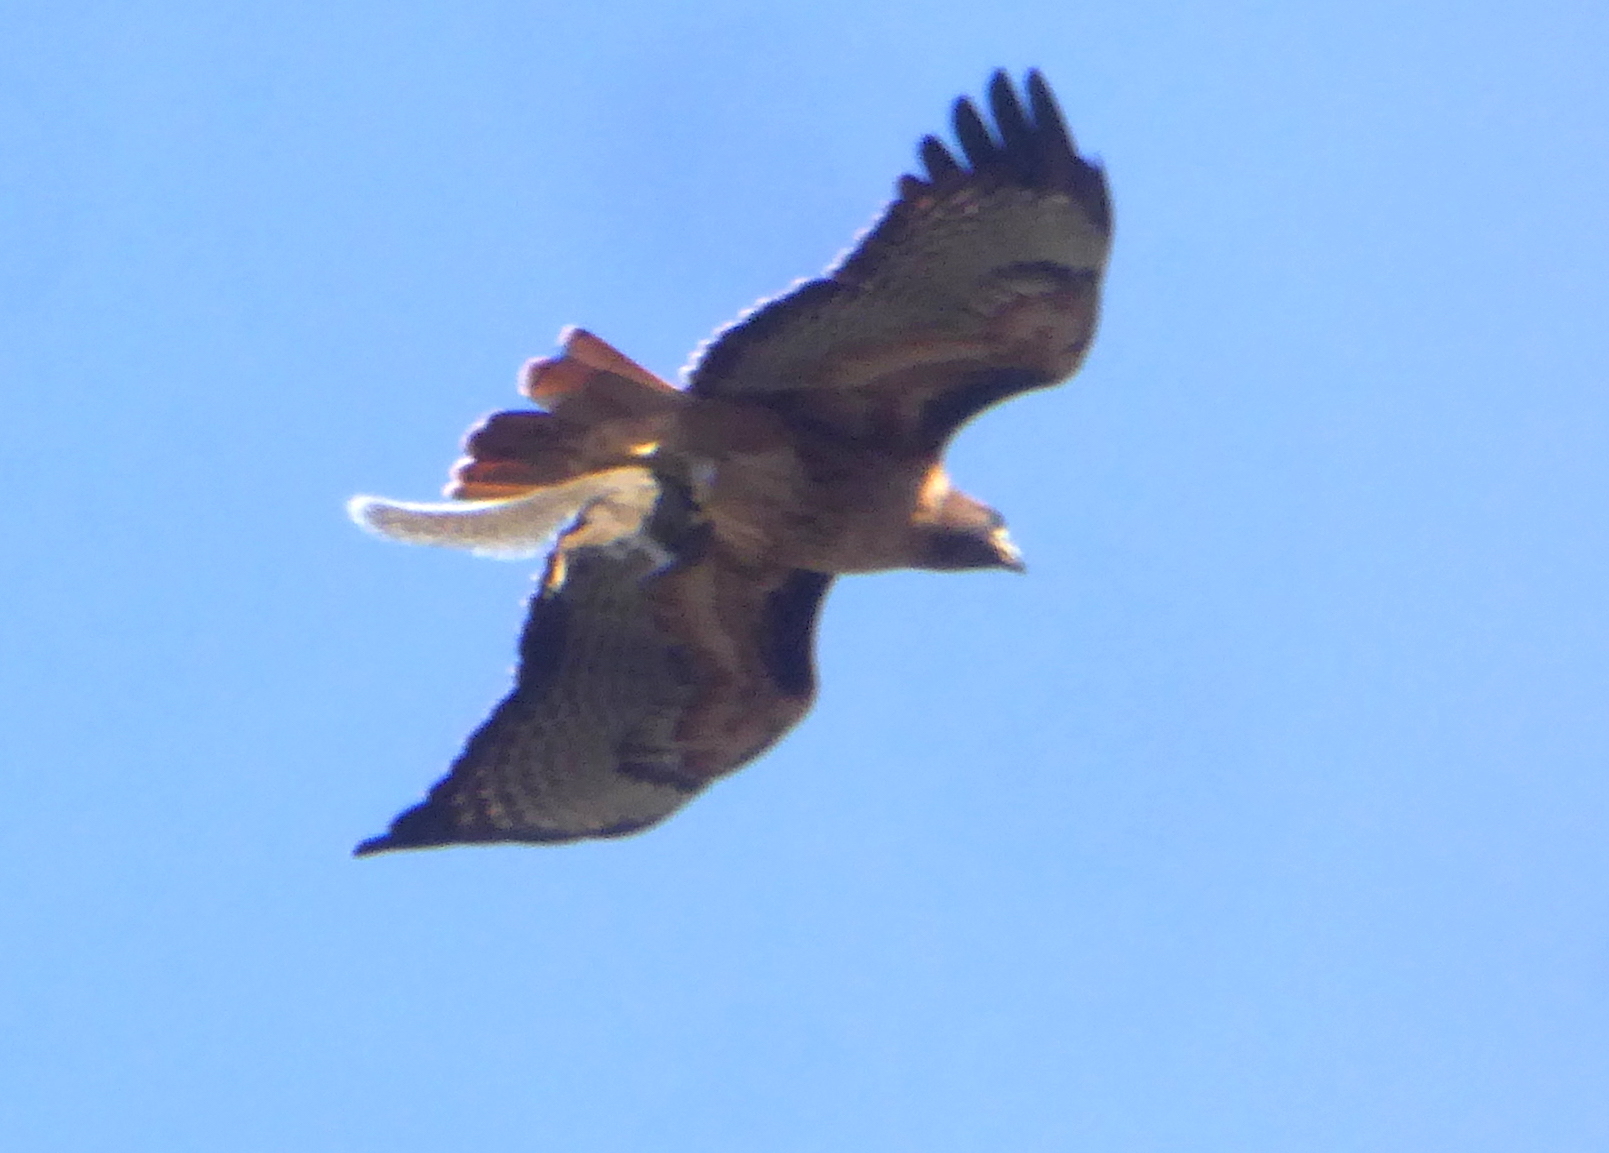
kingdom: Animalia
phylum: Chordata
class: Aves
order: Accipitriformes
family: Accipitridae
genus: Buteo
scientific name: Buteo jamaicensis
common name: Red-tailed hawk
